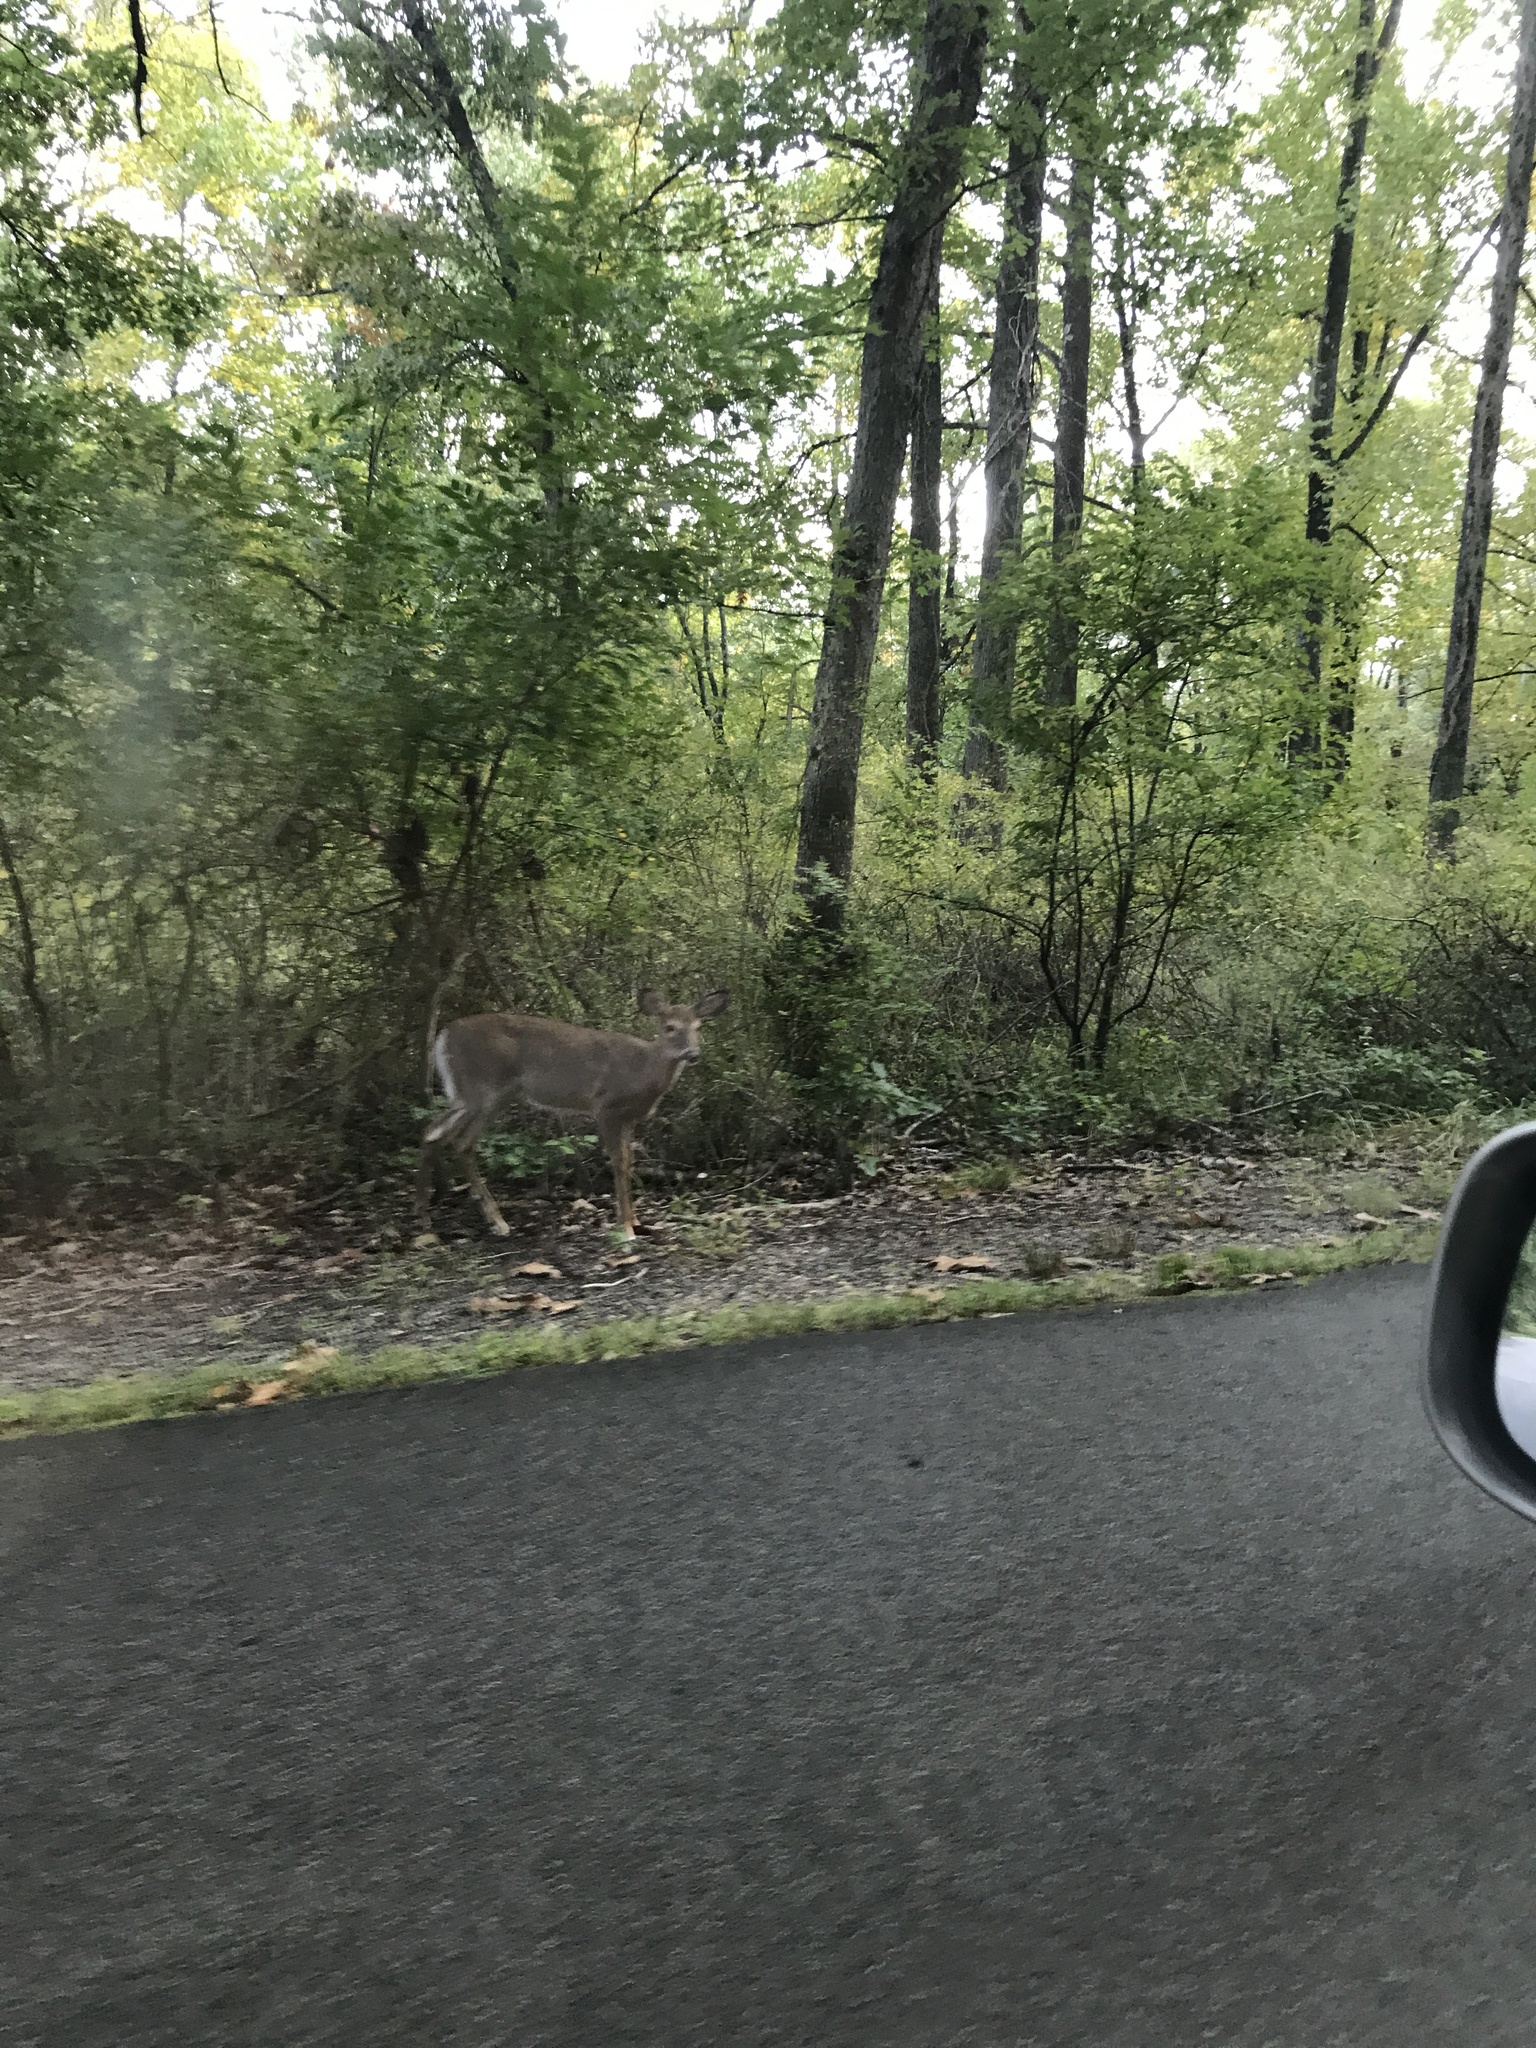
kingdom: Animalia
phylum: Chordata
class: Mammalia
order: Artiodactyla
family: Cervidae
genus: Odocoileus
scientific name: Odocoileus virginianus
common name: White-tailed deer
